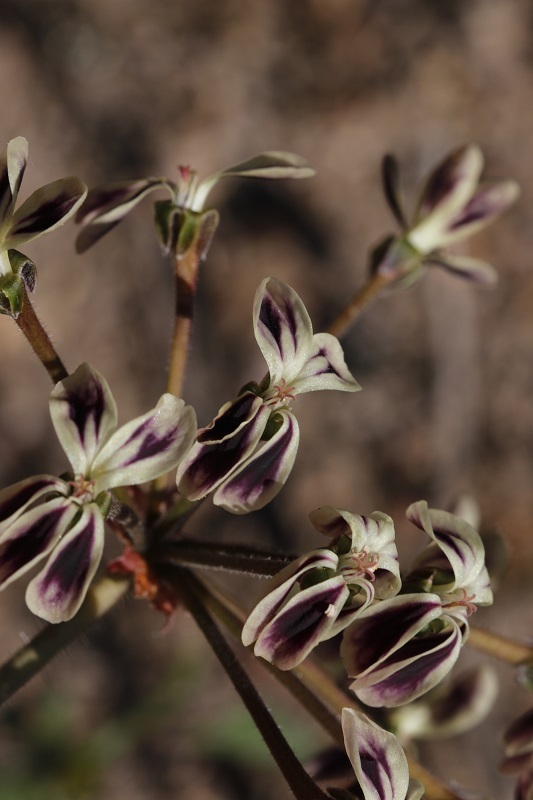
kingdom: Plantae
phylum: Tracheophyta
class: Magnoliopsida
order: Geraniales
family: Geraniaceae
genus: Pelargonium
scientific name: Pelargonium triste
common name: Night-scent pelargonium
